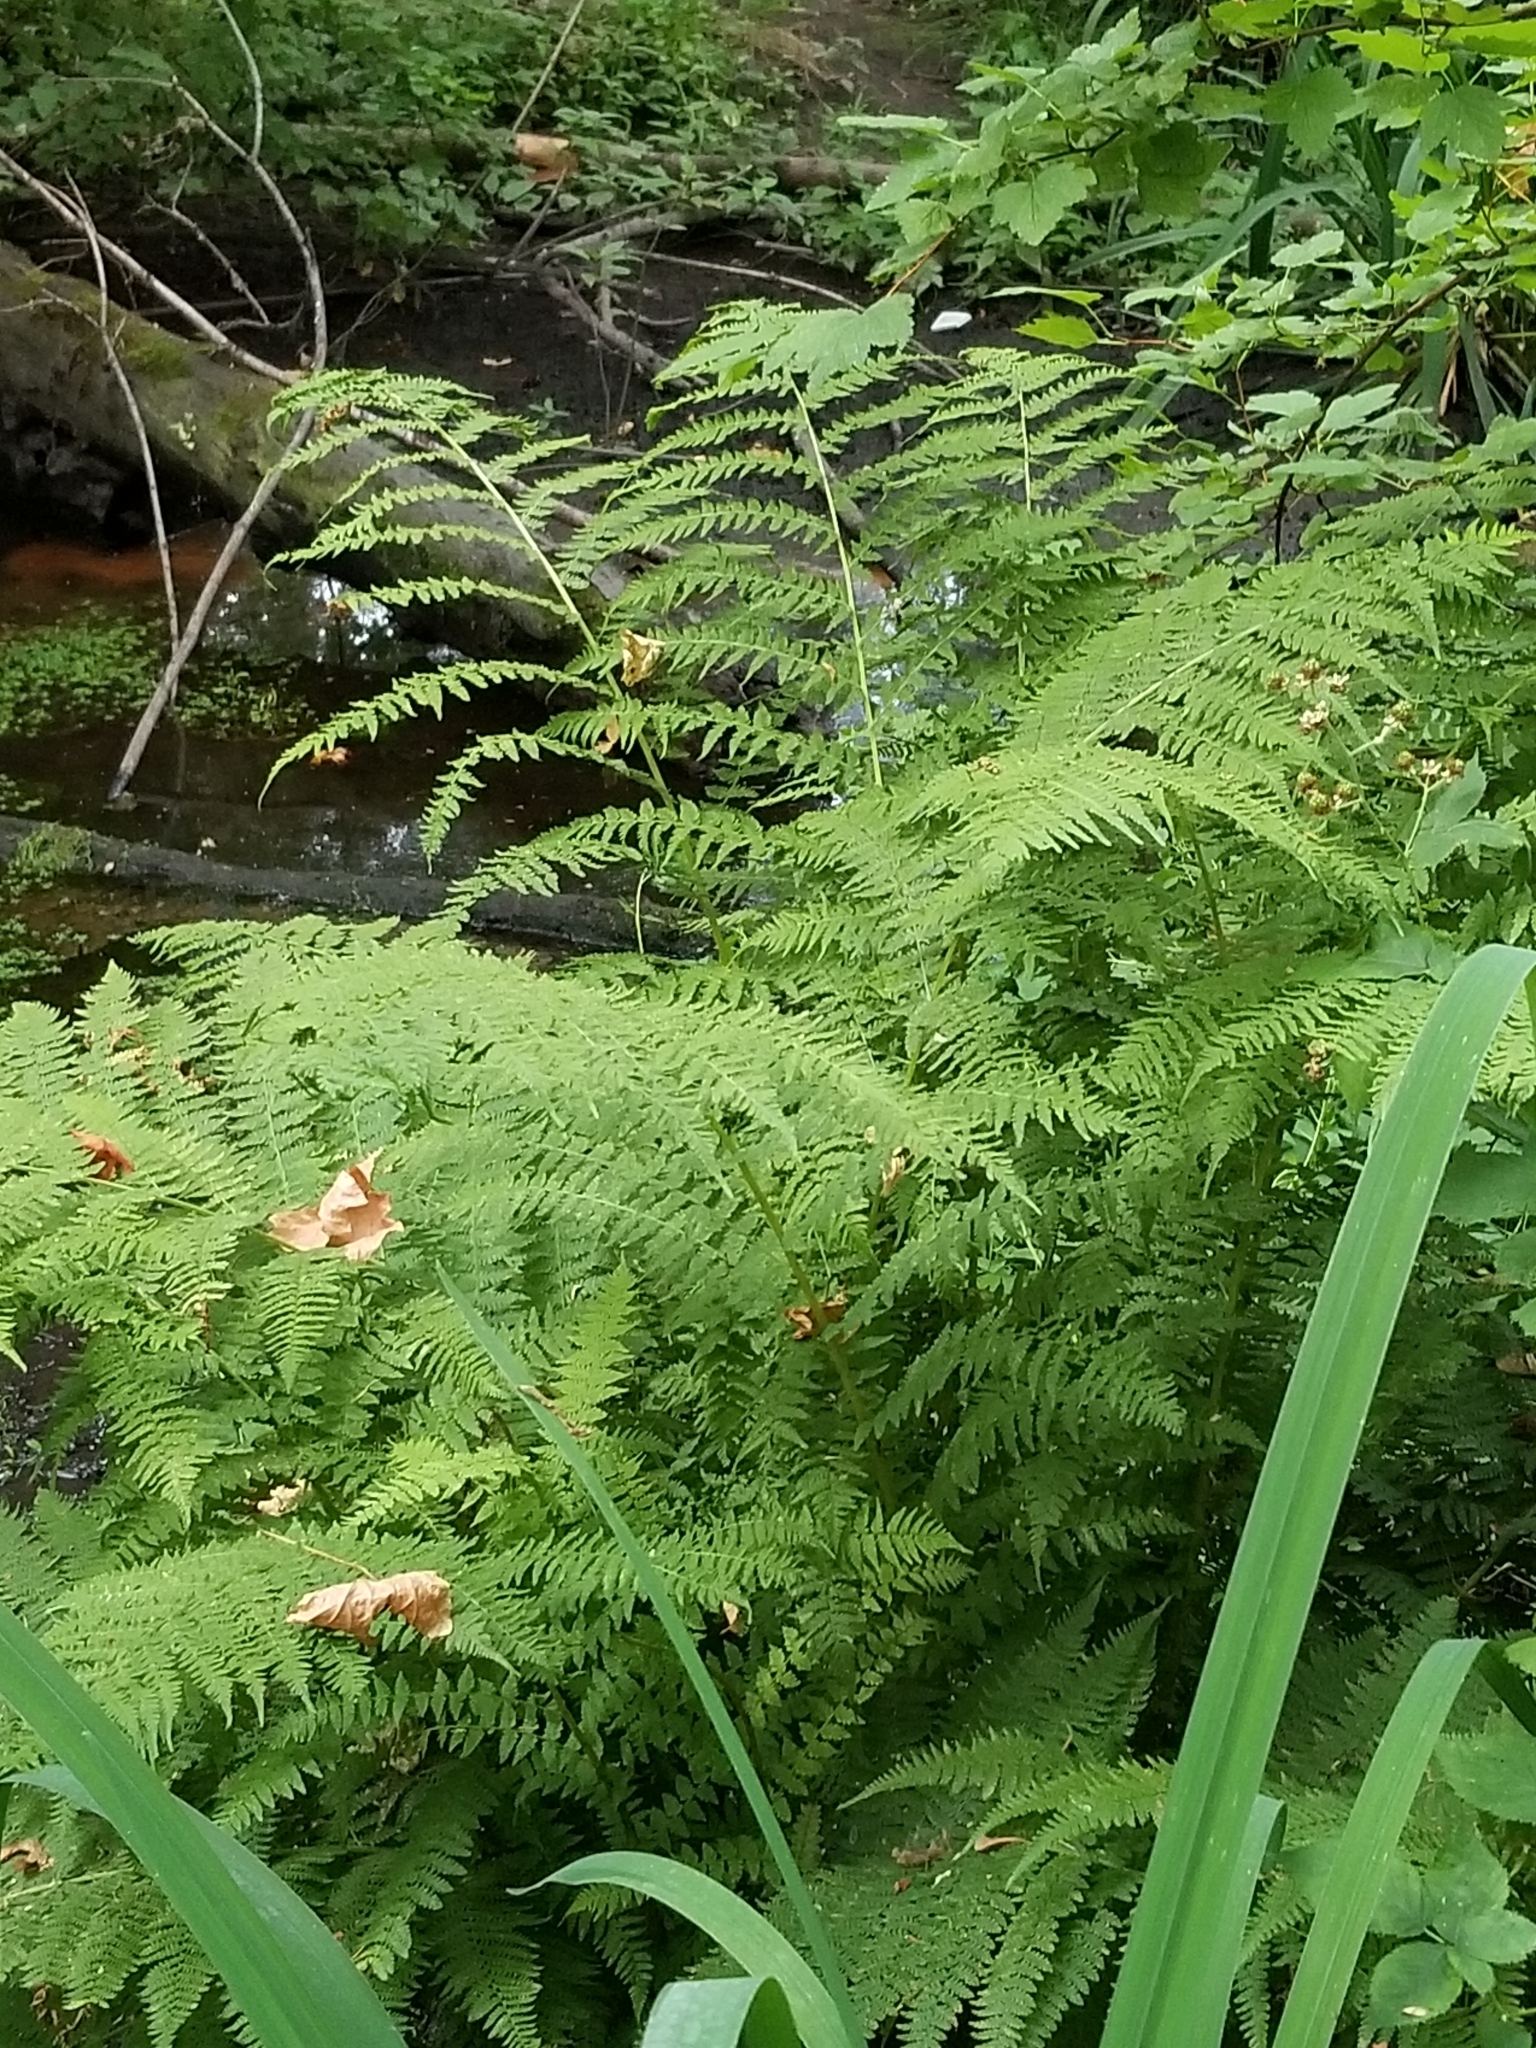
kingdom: Plantae
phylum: Tracheophyta
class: Polypodiopsida
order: Polypodiales
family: Athyriaceae
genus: Athyrium
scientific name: Athyrium filix-femina
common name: Lady fern
